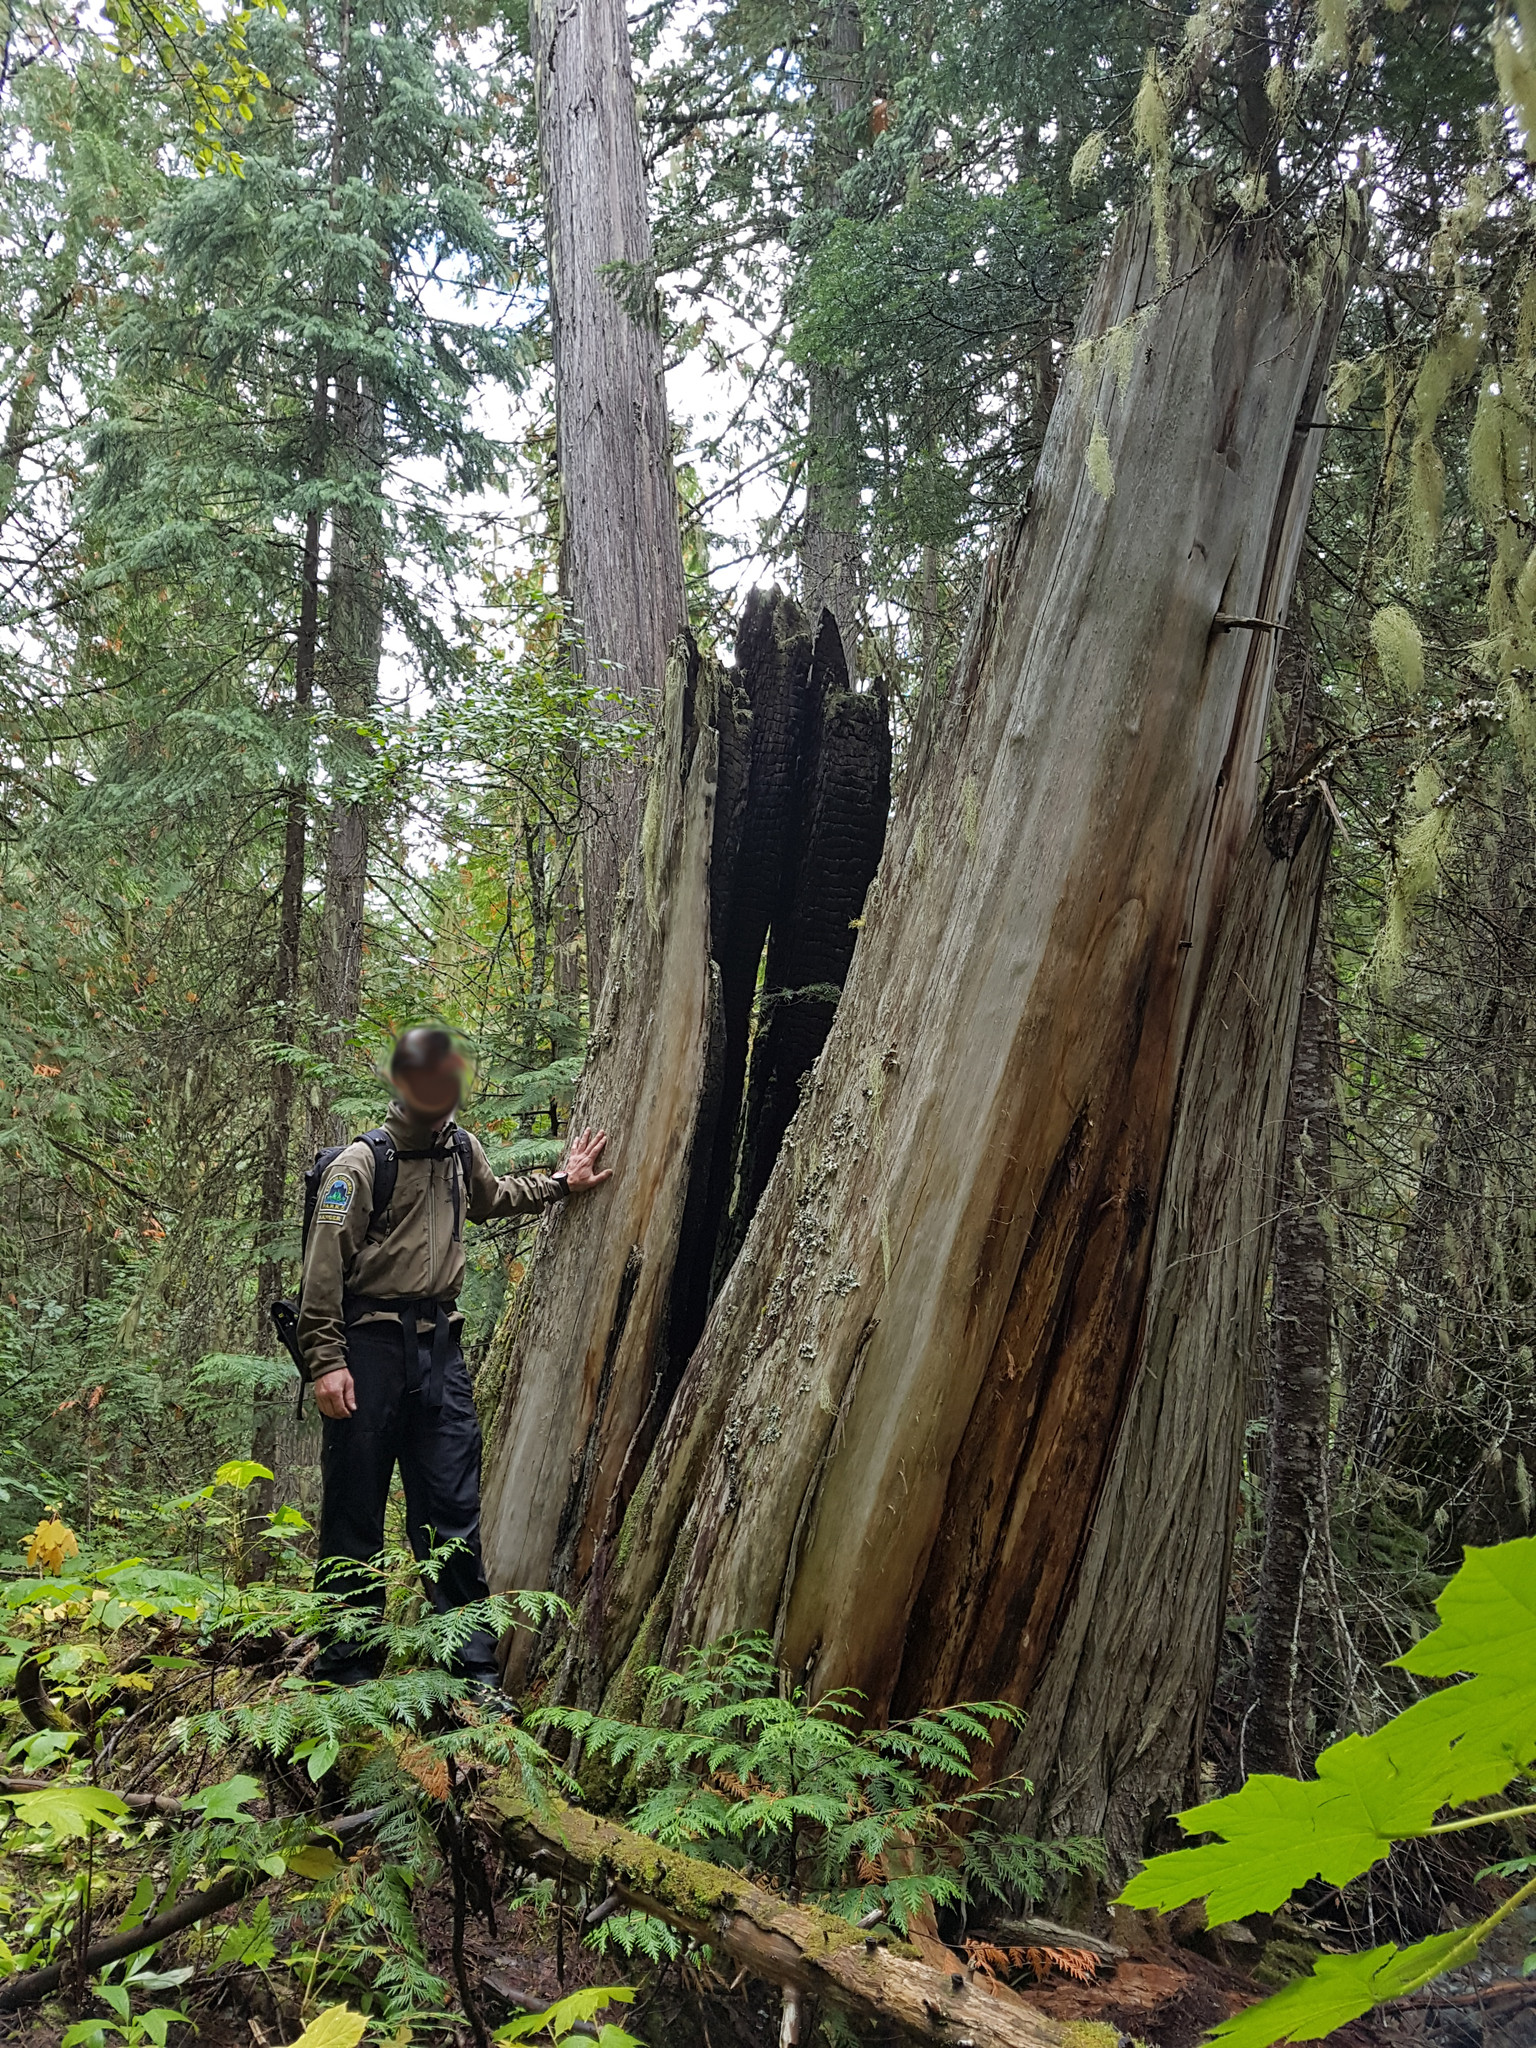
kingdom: Plantae
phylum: Tracheophyta
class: Pinopsida
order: Pinales
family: Cupressaceae
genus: Thuja
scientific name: Thuja plicata
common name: Western red-cedar
